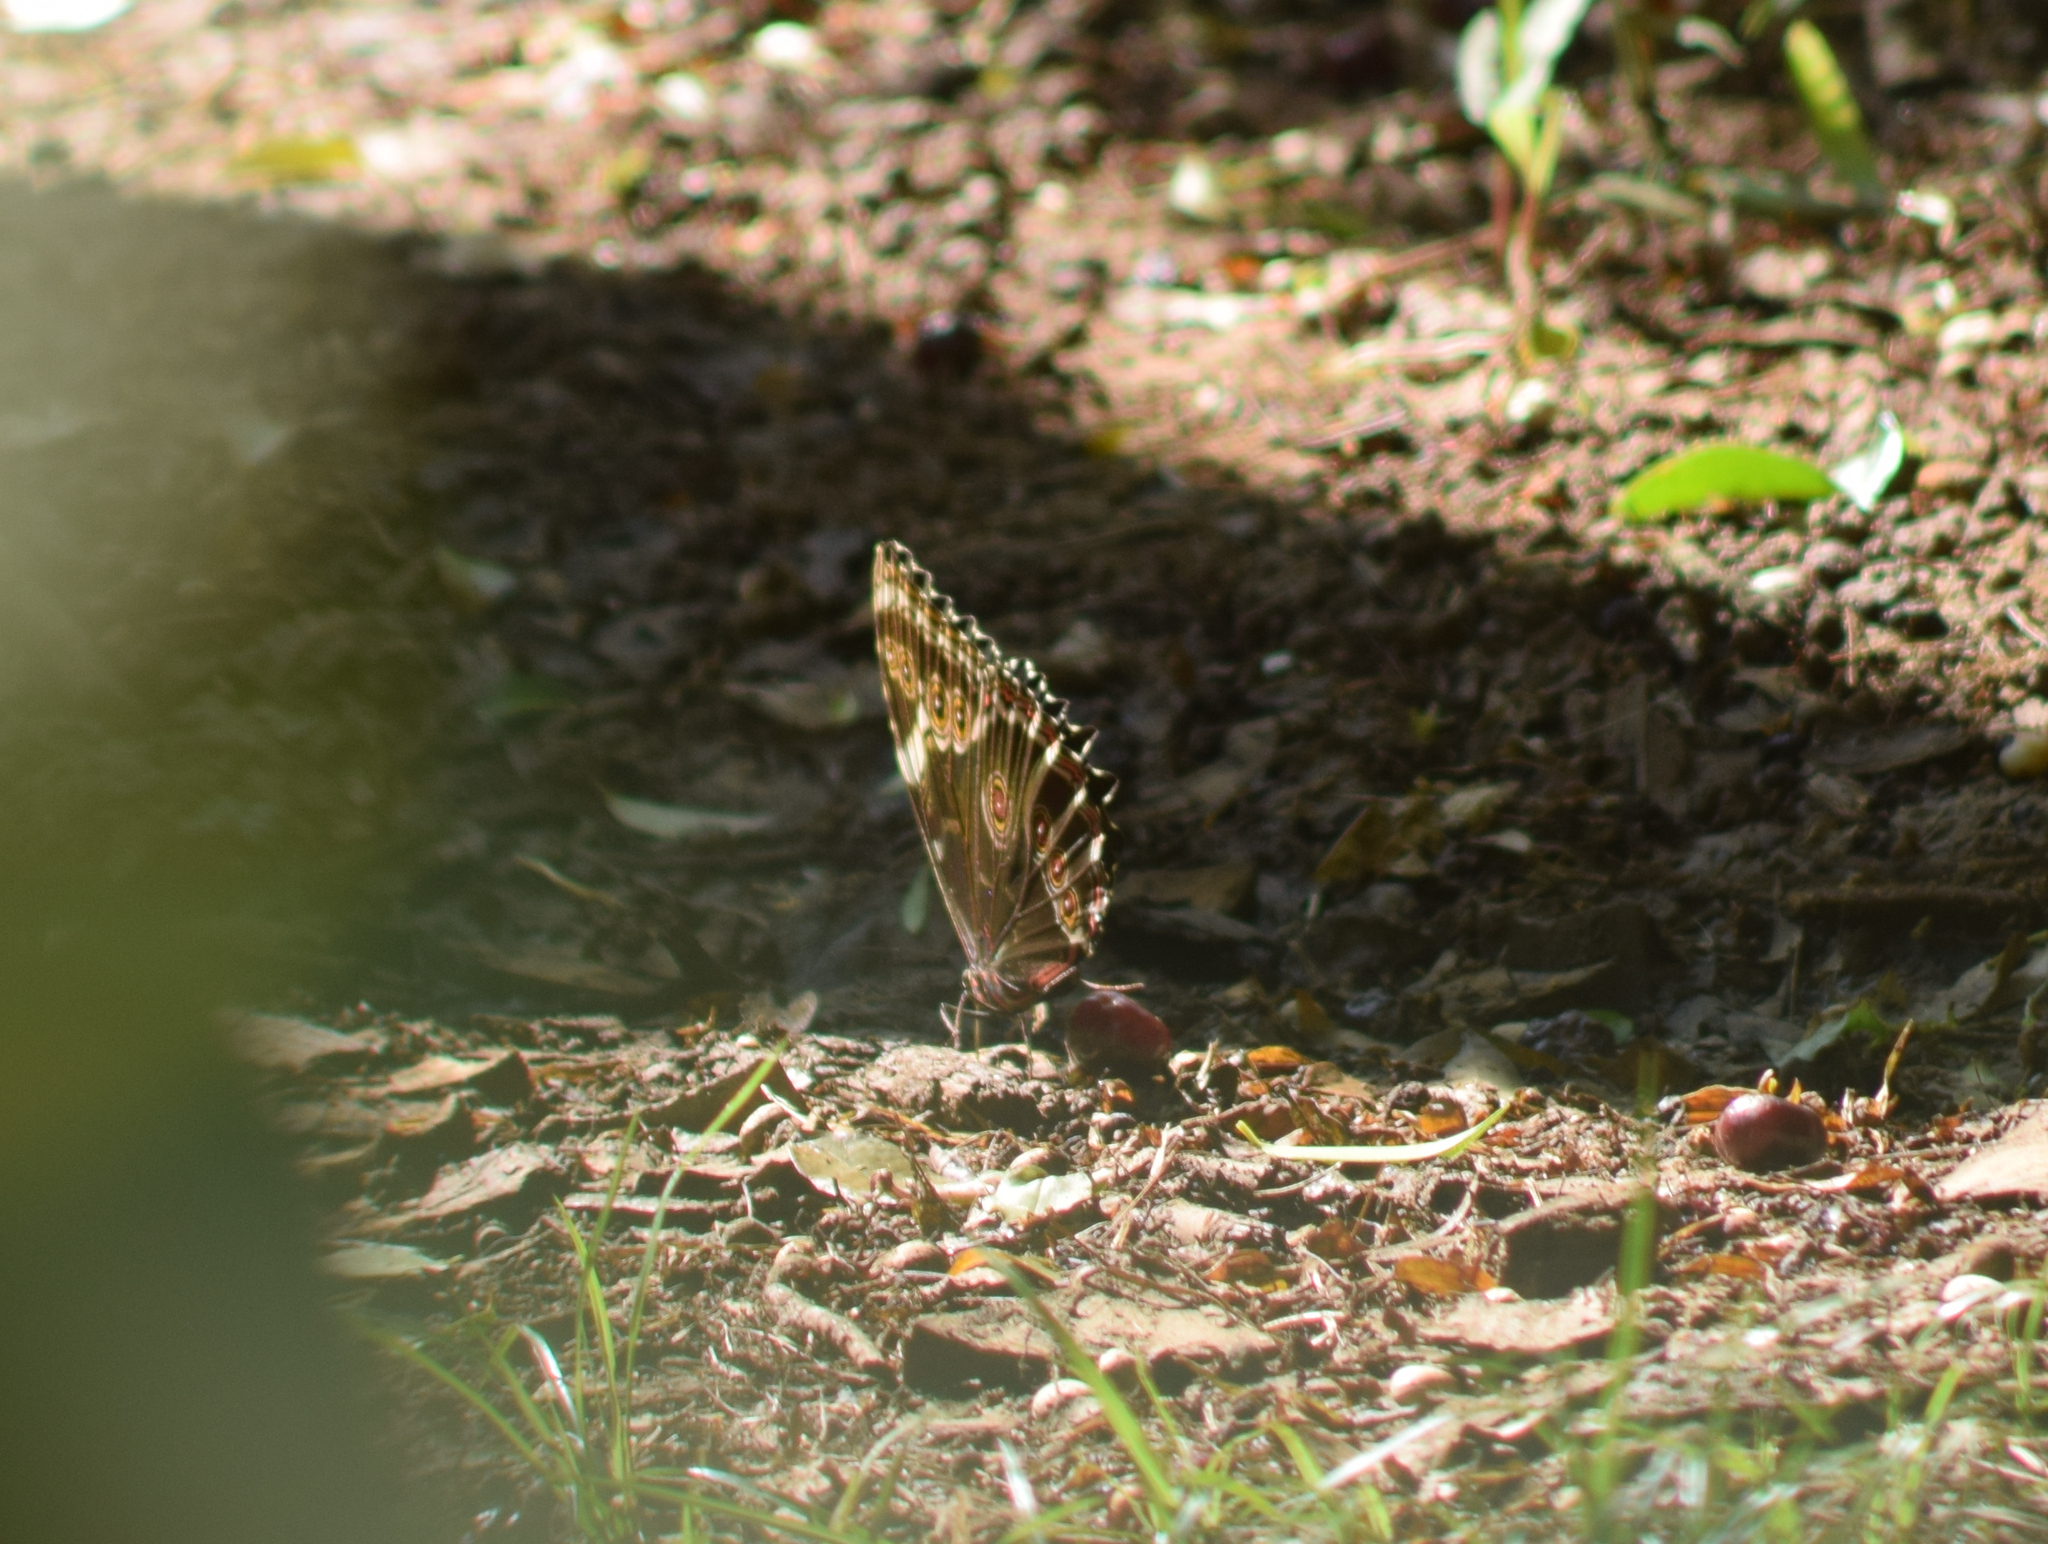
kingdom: Animalia
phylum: Arthropoda
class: Insecta
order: Lepidoptera
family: Nymphalidae
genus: Morpho
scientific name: Morpho helenor
